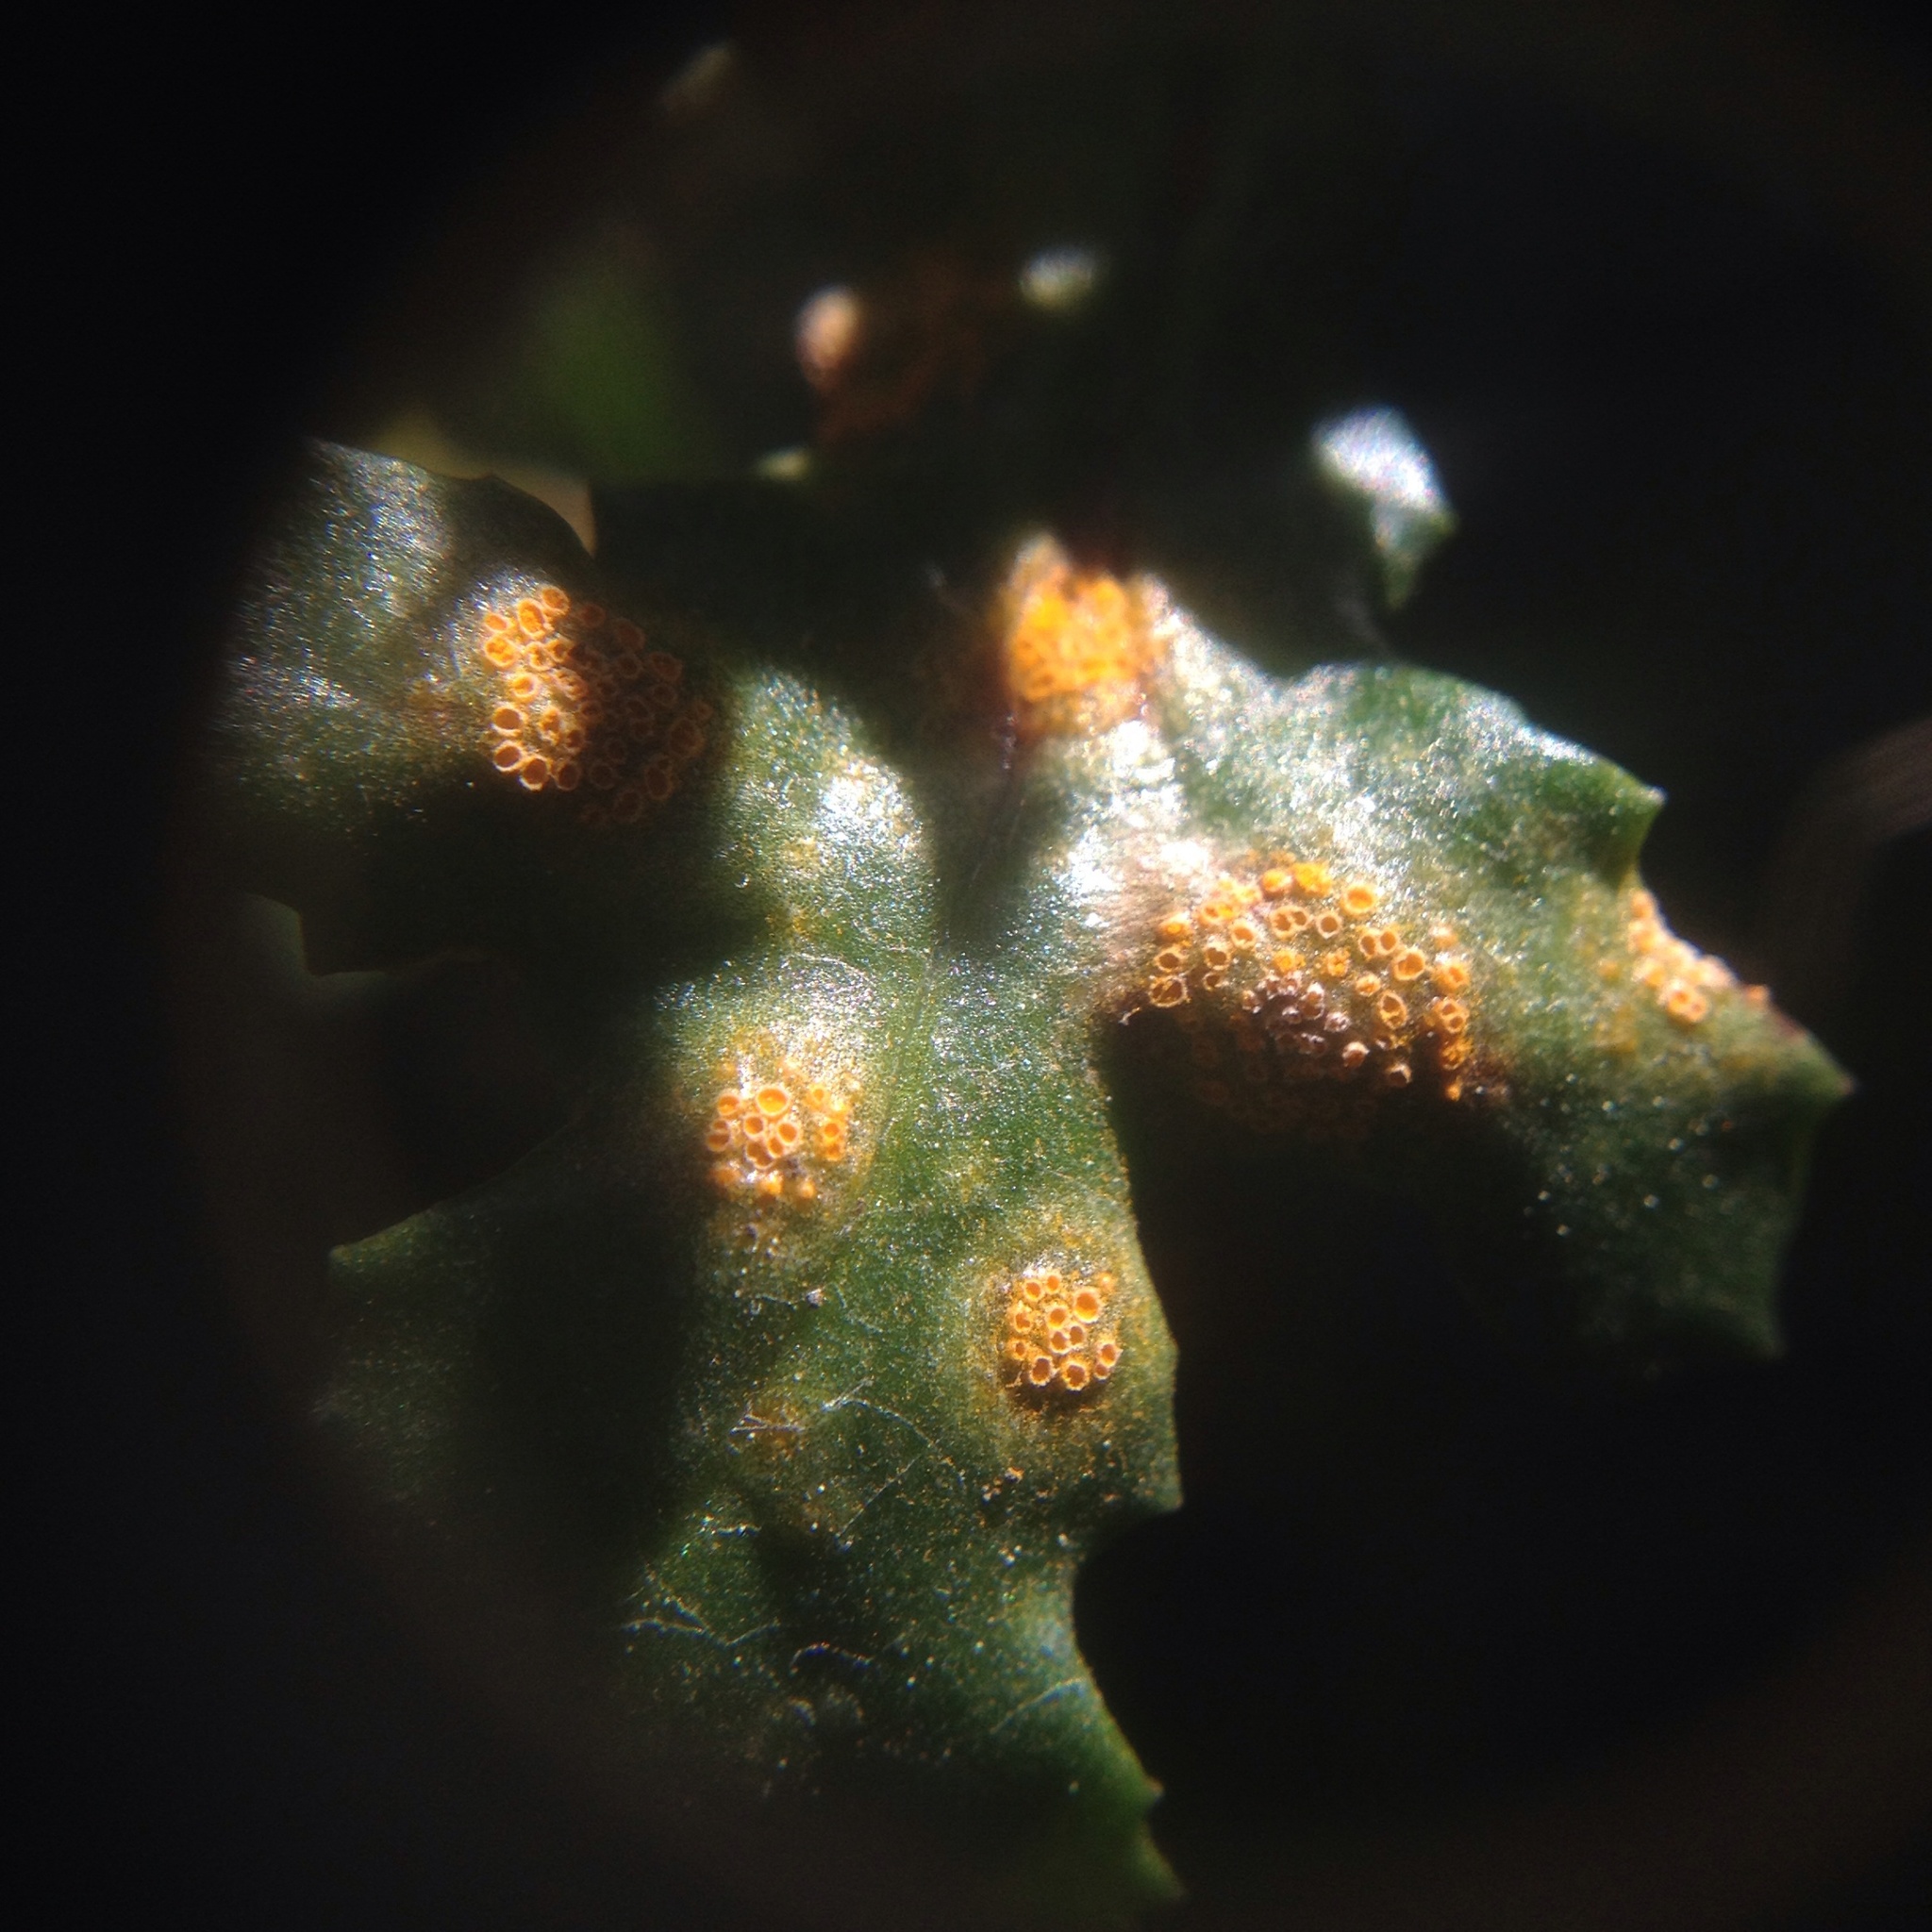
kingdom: Fungi
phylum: Basidiomycota
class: Pucciniomycetes
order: Pucciniales
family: Pucciniaceae
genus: Puccinia
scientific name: Puccinia lagenophorae
